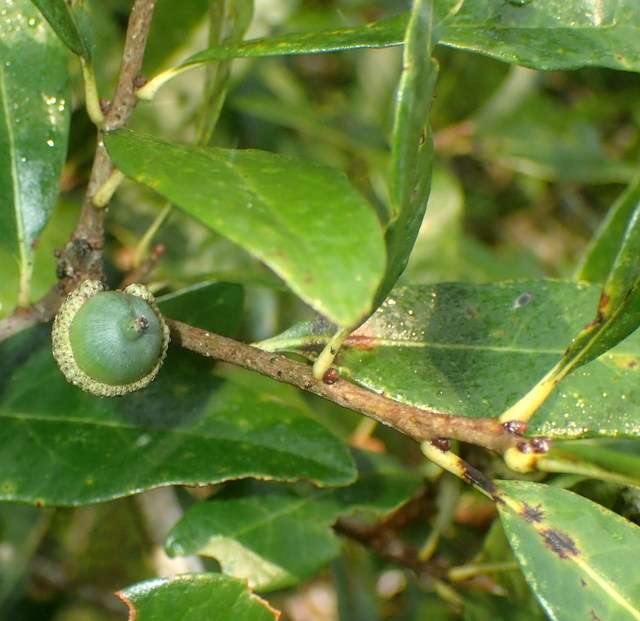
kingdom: Plantae
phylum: Tracheophyta
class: Magnoliopsida
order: Fagales
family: Fagaceae
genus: Quercus
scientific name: Quercus virginiana
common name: Southern live oak
